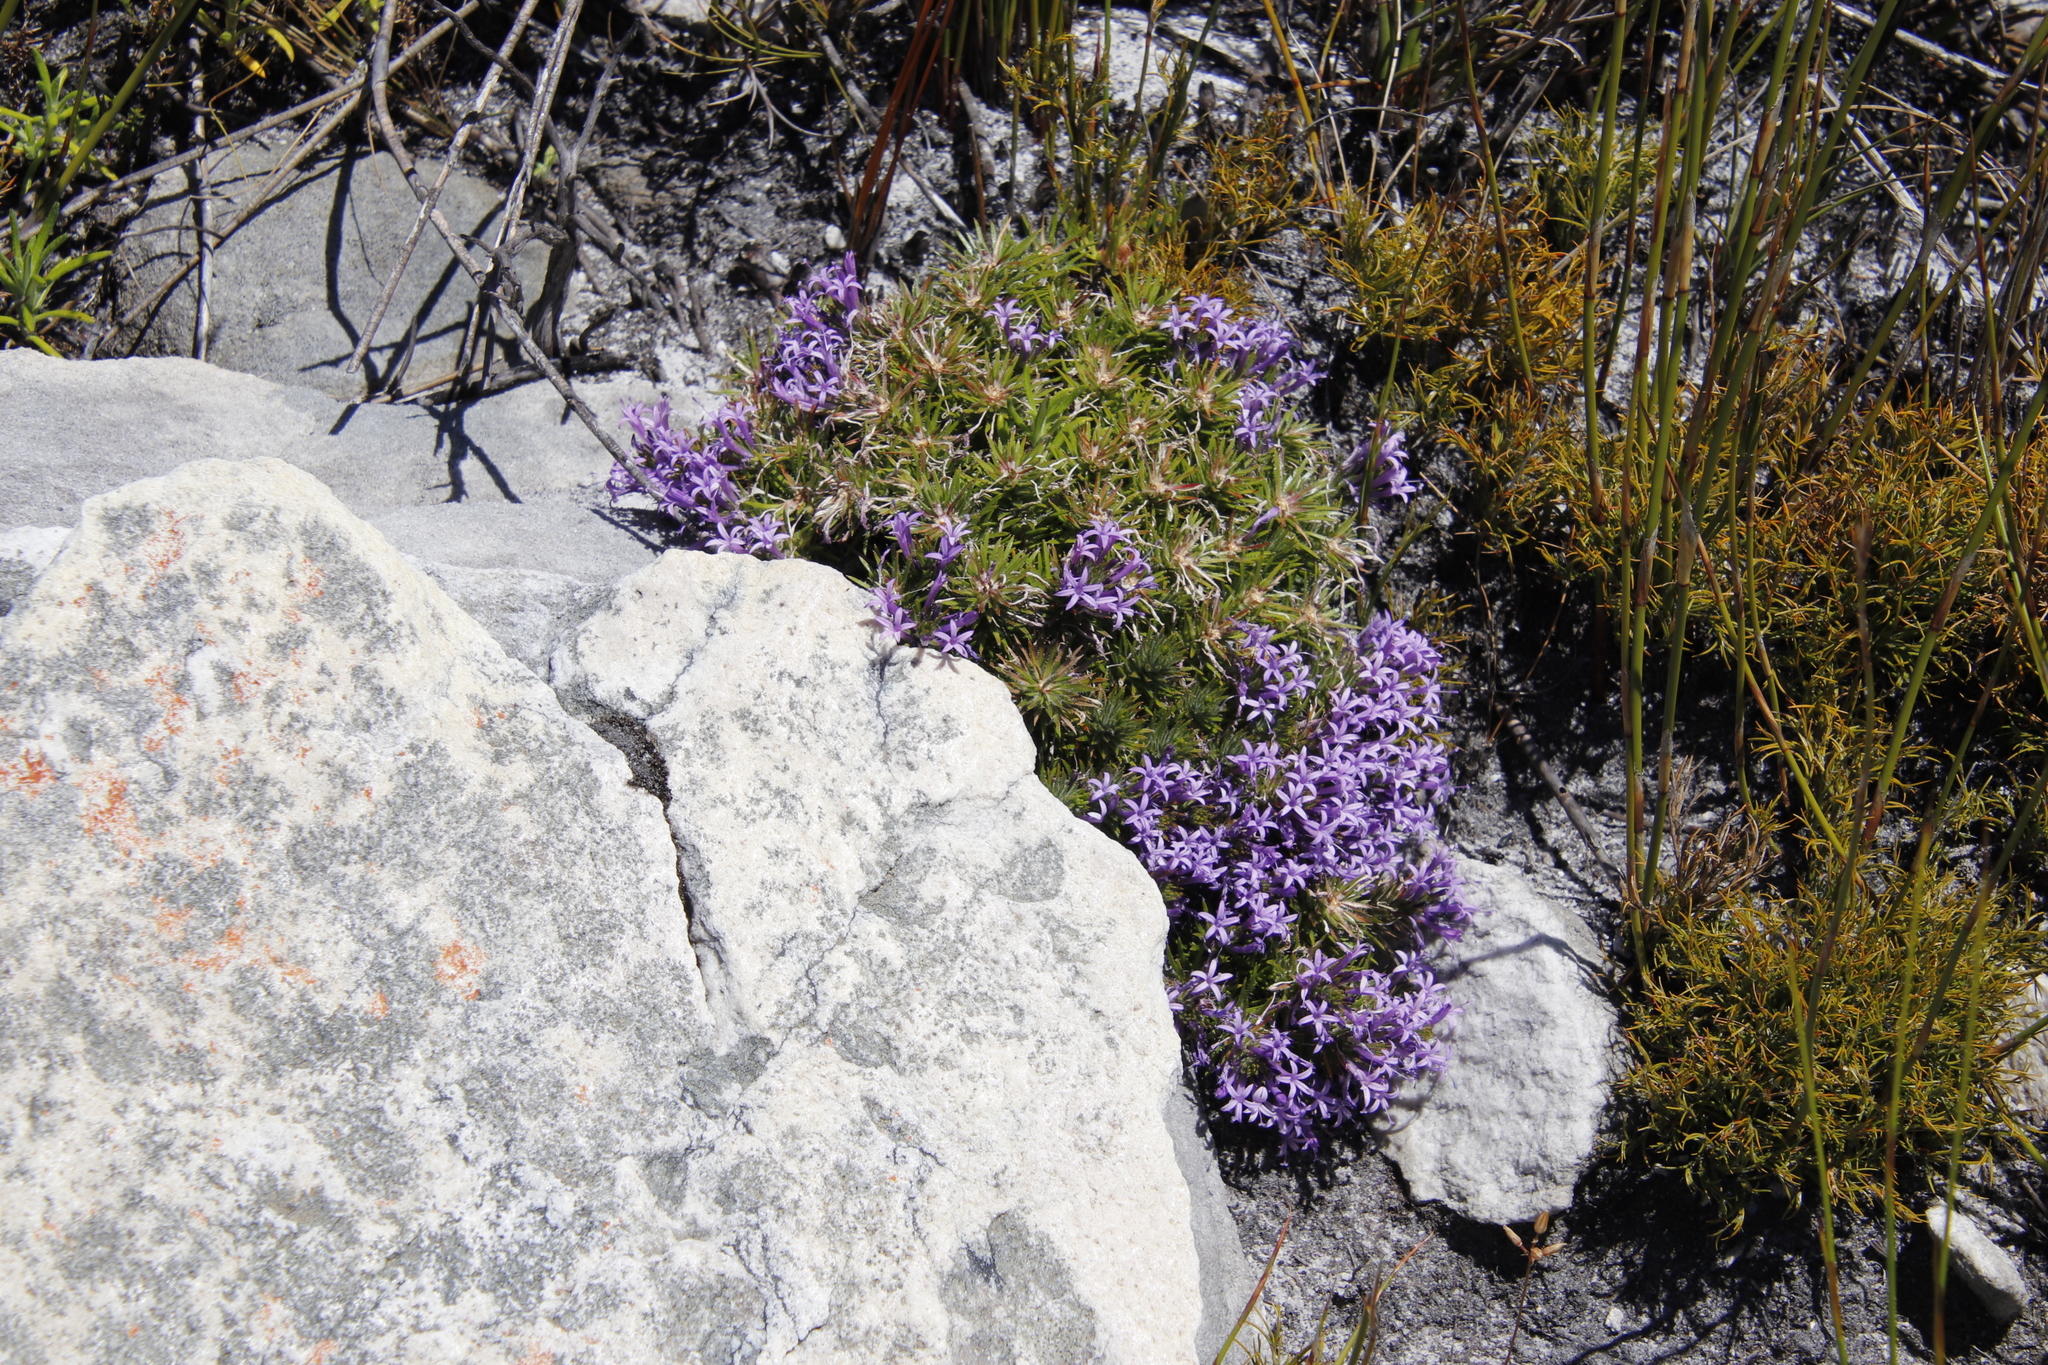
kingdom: Plantae
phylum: Tracheophyta
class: Magnoliopsida
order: Asterales
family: Campanulaceae
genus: Merciera
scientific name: Merciera azurea
